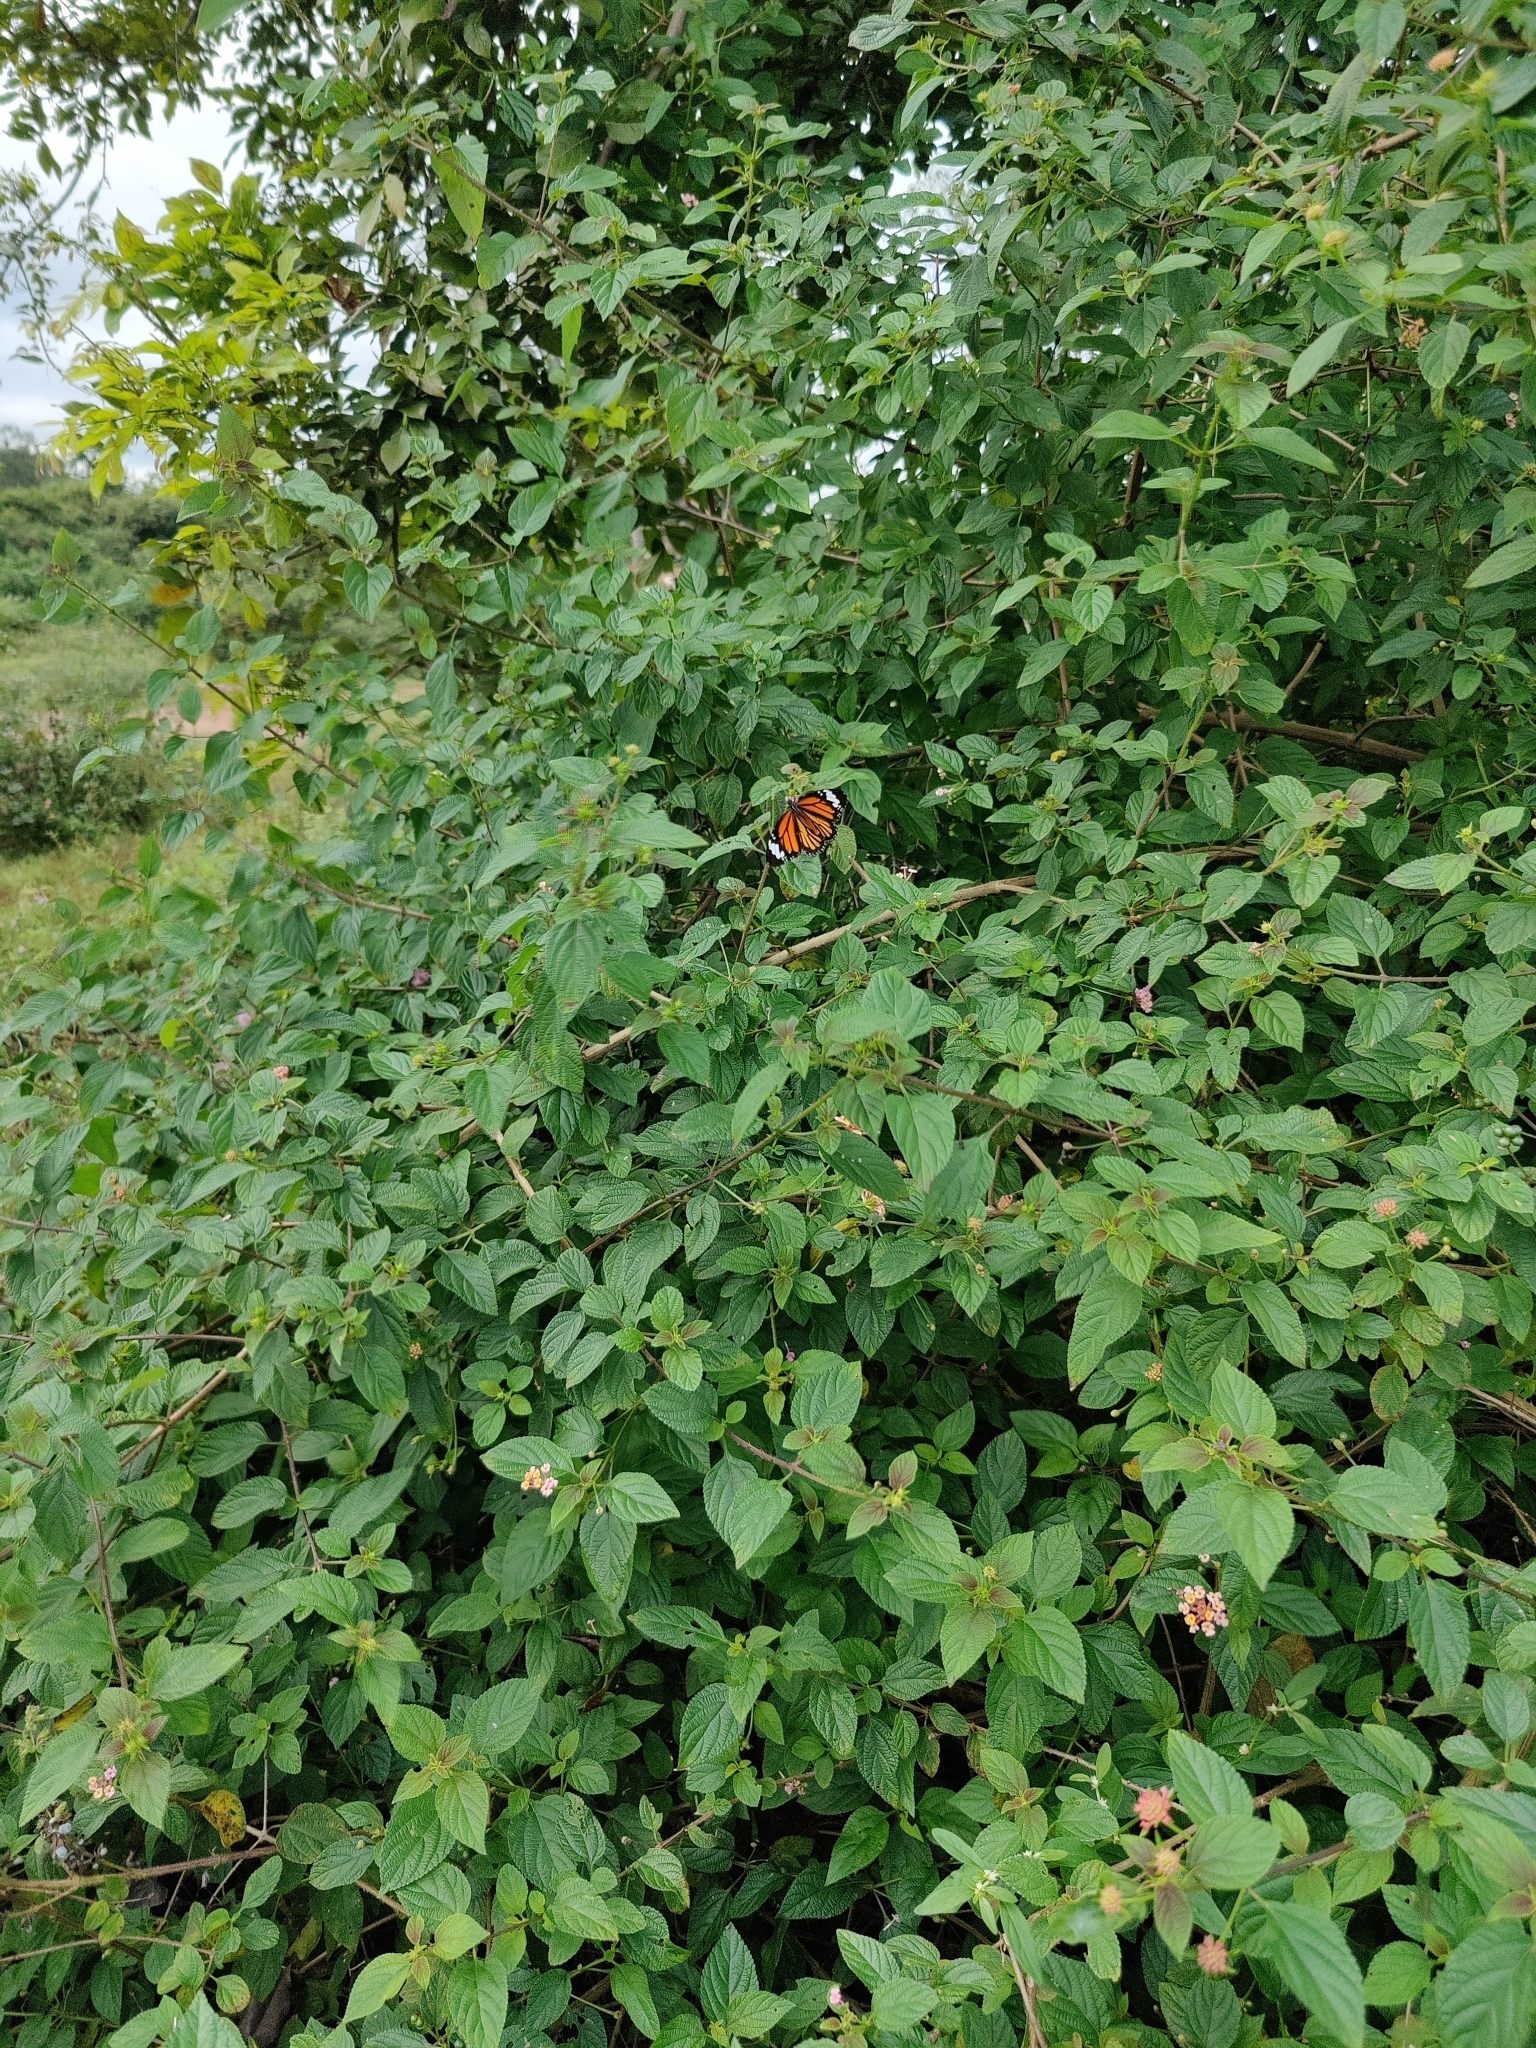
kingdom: Animalia
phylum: Arthropoda
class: Insecta
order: Lepidoptera
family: Nymphalidae
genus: Danaus
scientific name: Danaus genutia
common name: Common tiger butterfly
